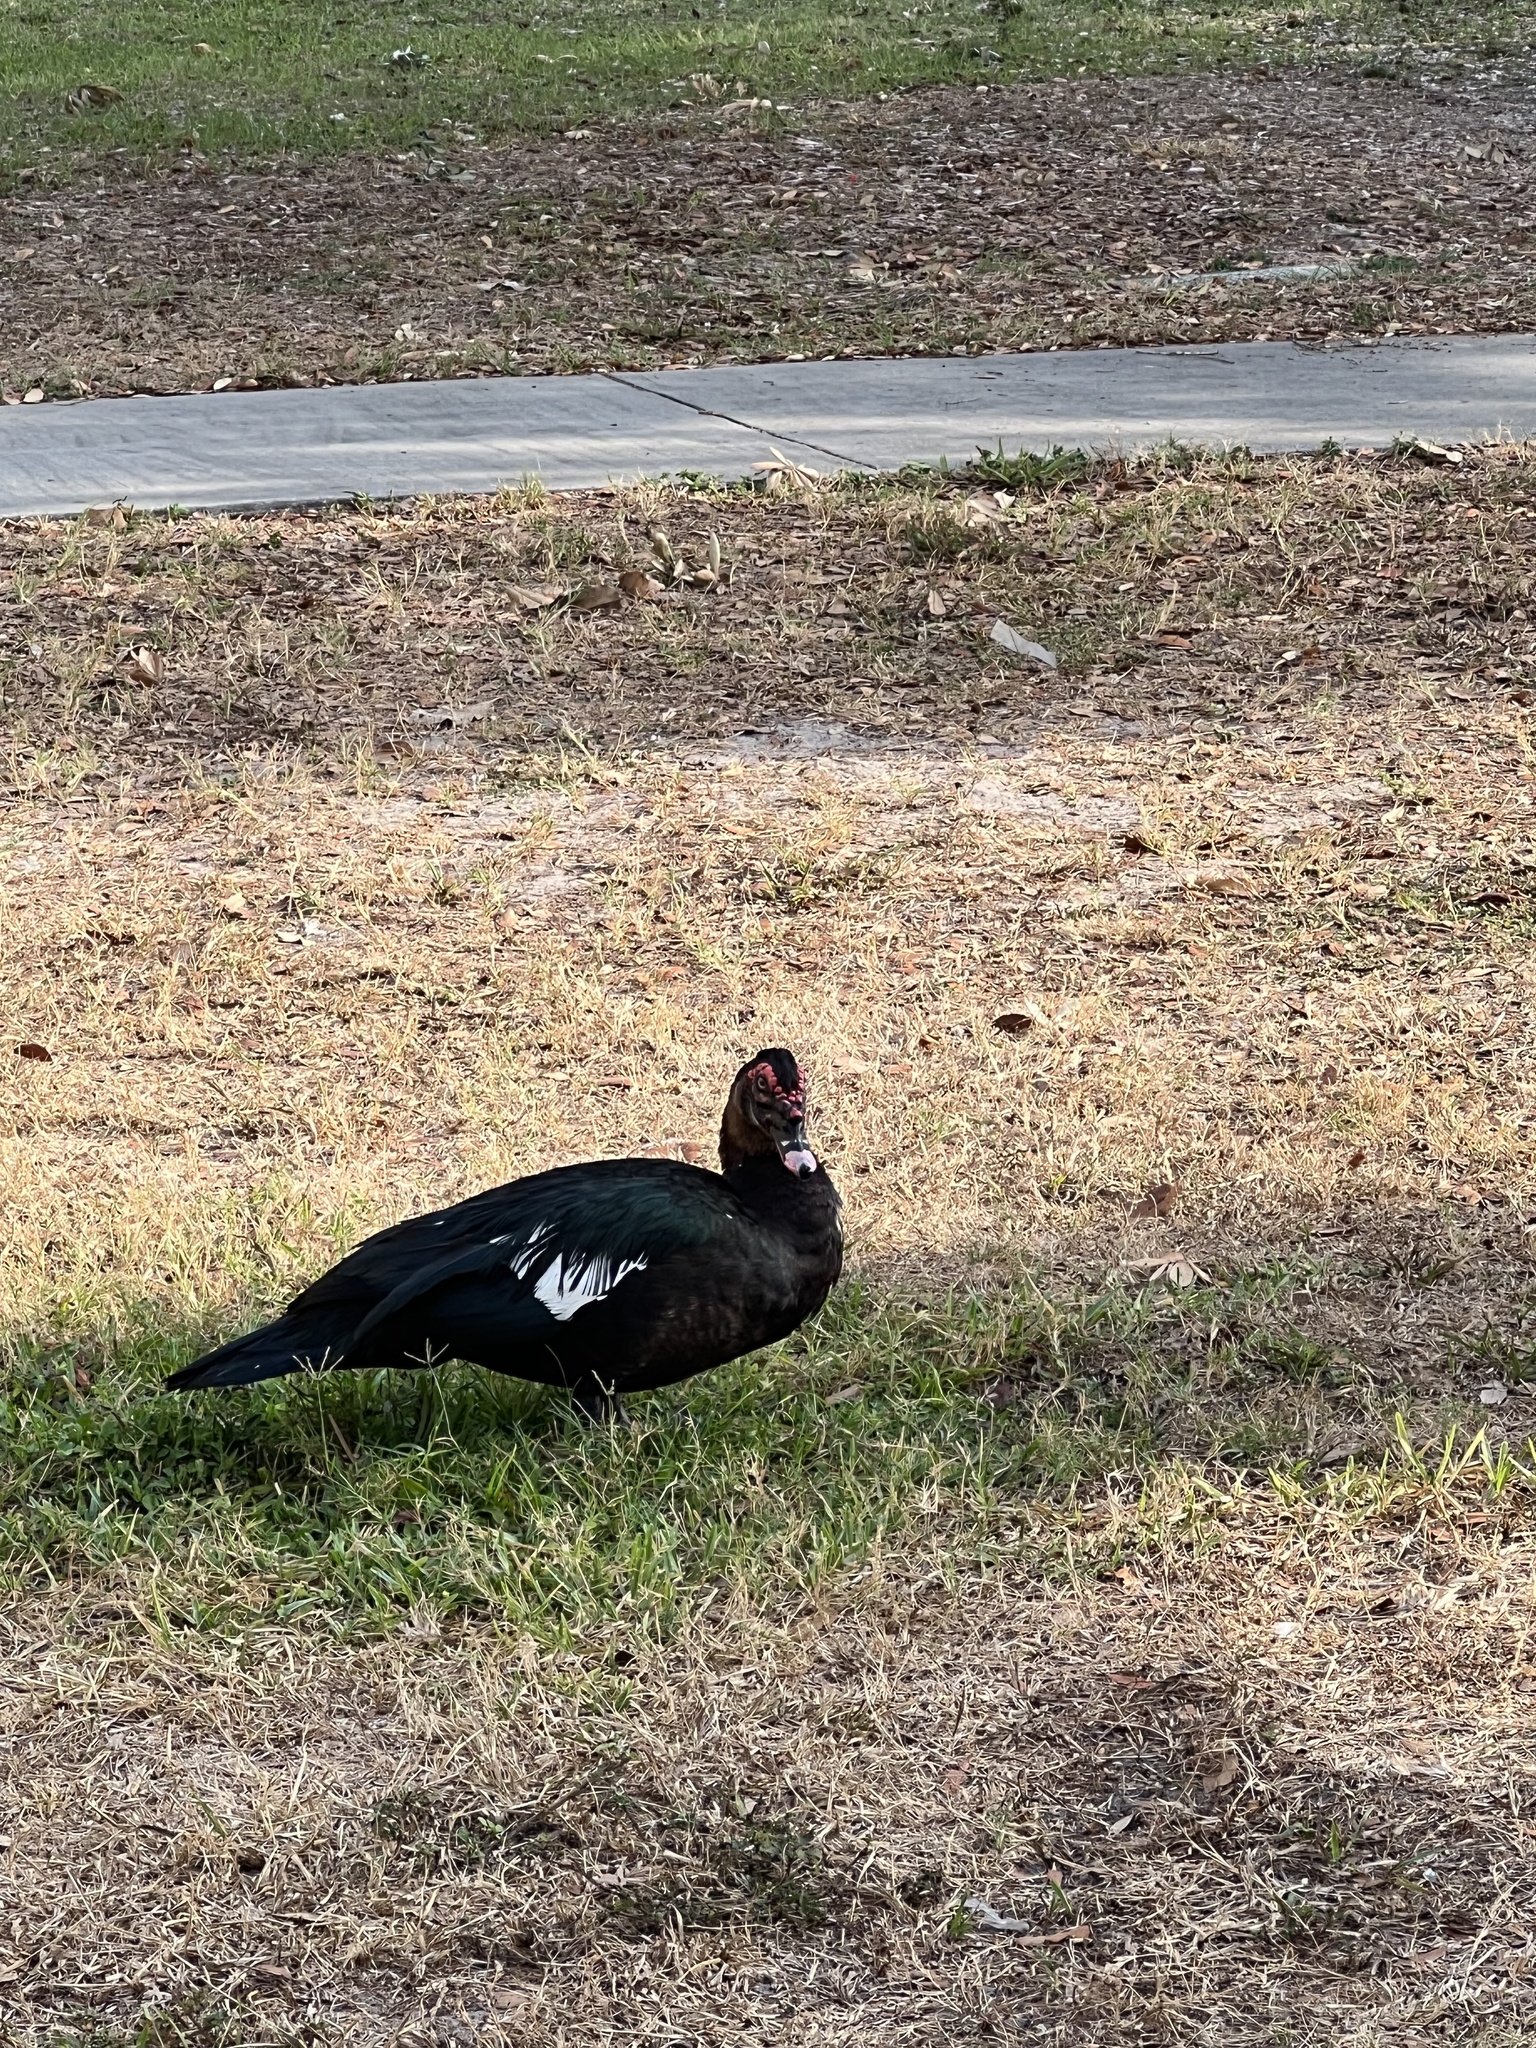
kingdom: Animalia
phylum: Chordata
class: Aves
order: Anseriformes
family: Anatidae
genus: Cairina
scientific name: Cairina moschata
